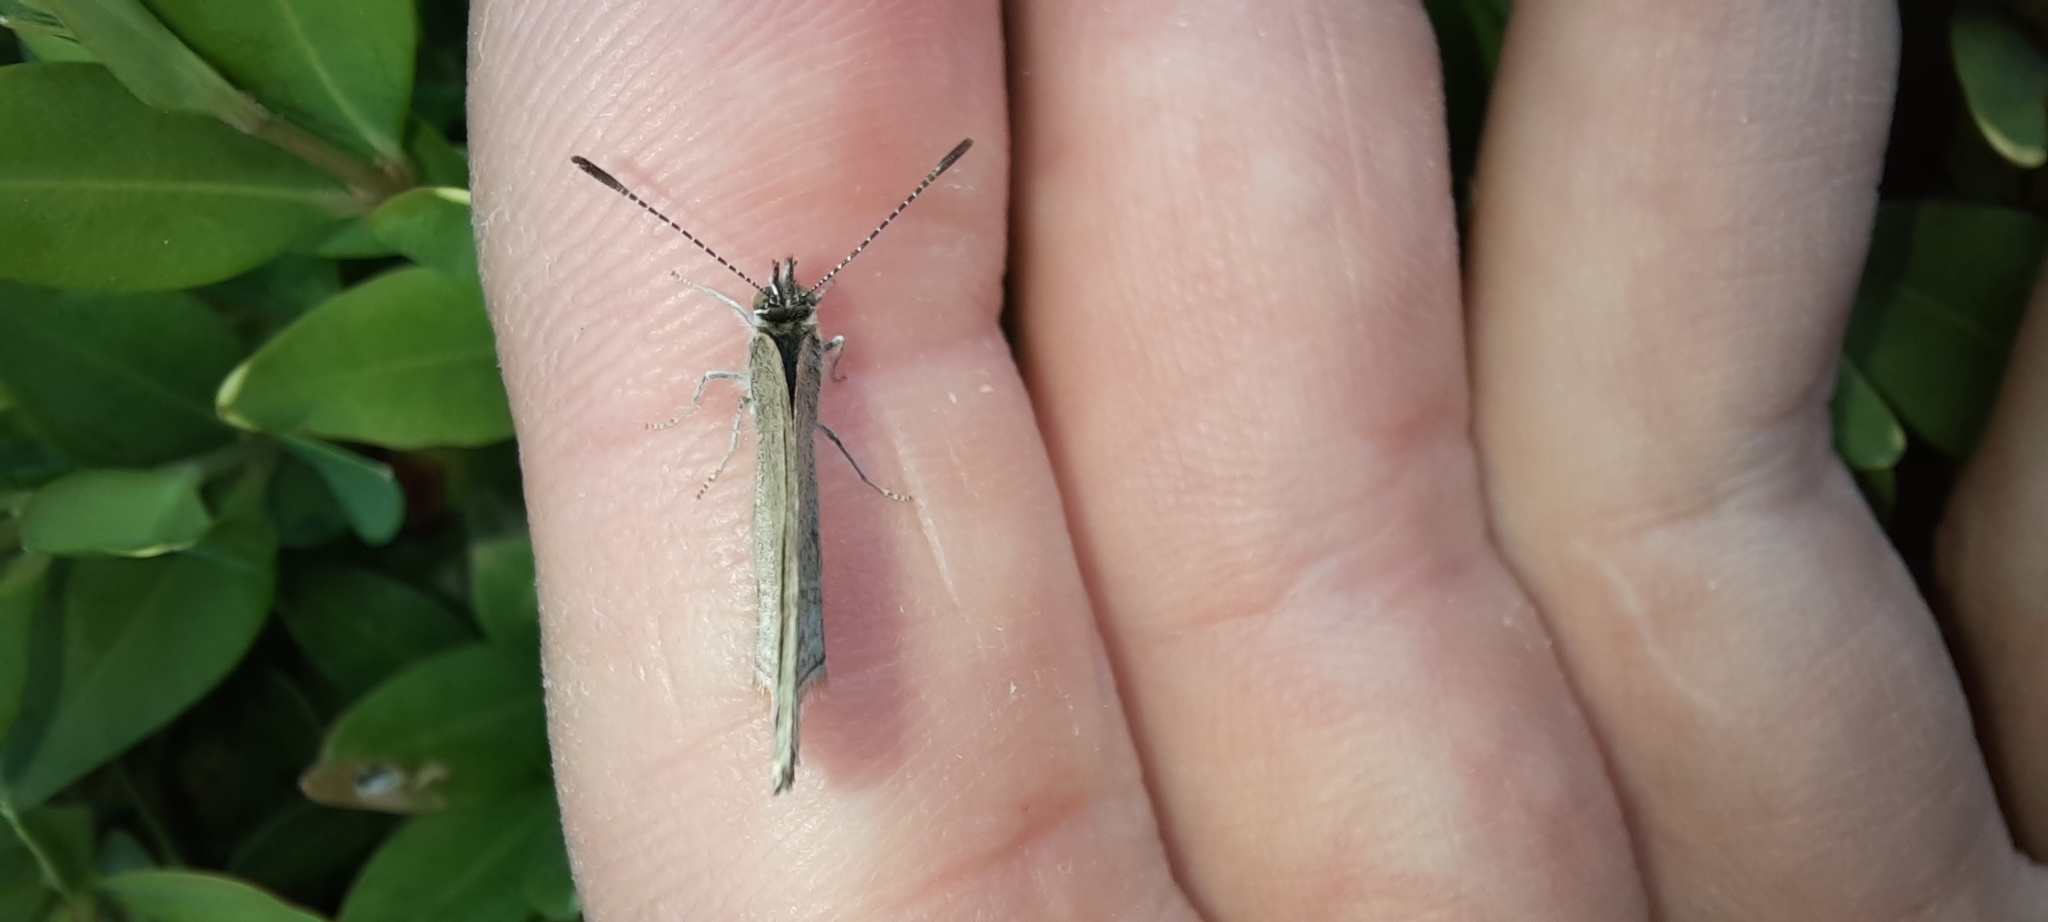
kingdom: Animalia
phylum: Arthropoda
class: Insecta
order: Lepidoptera
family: Lycaenidae
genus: Zizina
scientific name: Zizina labradus
